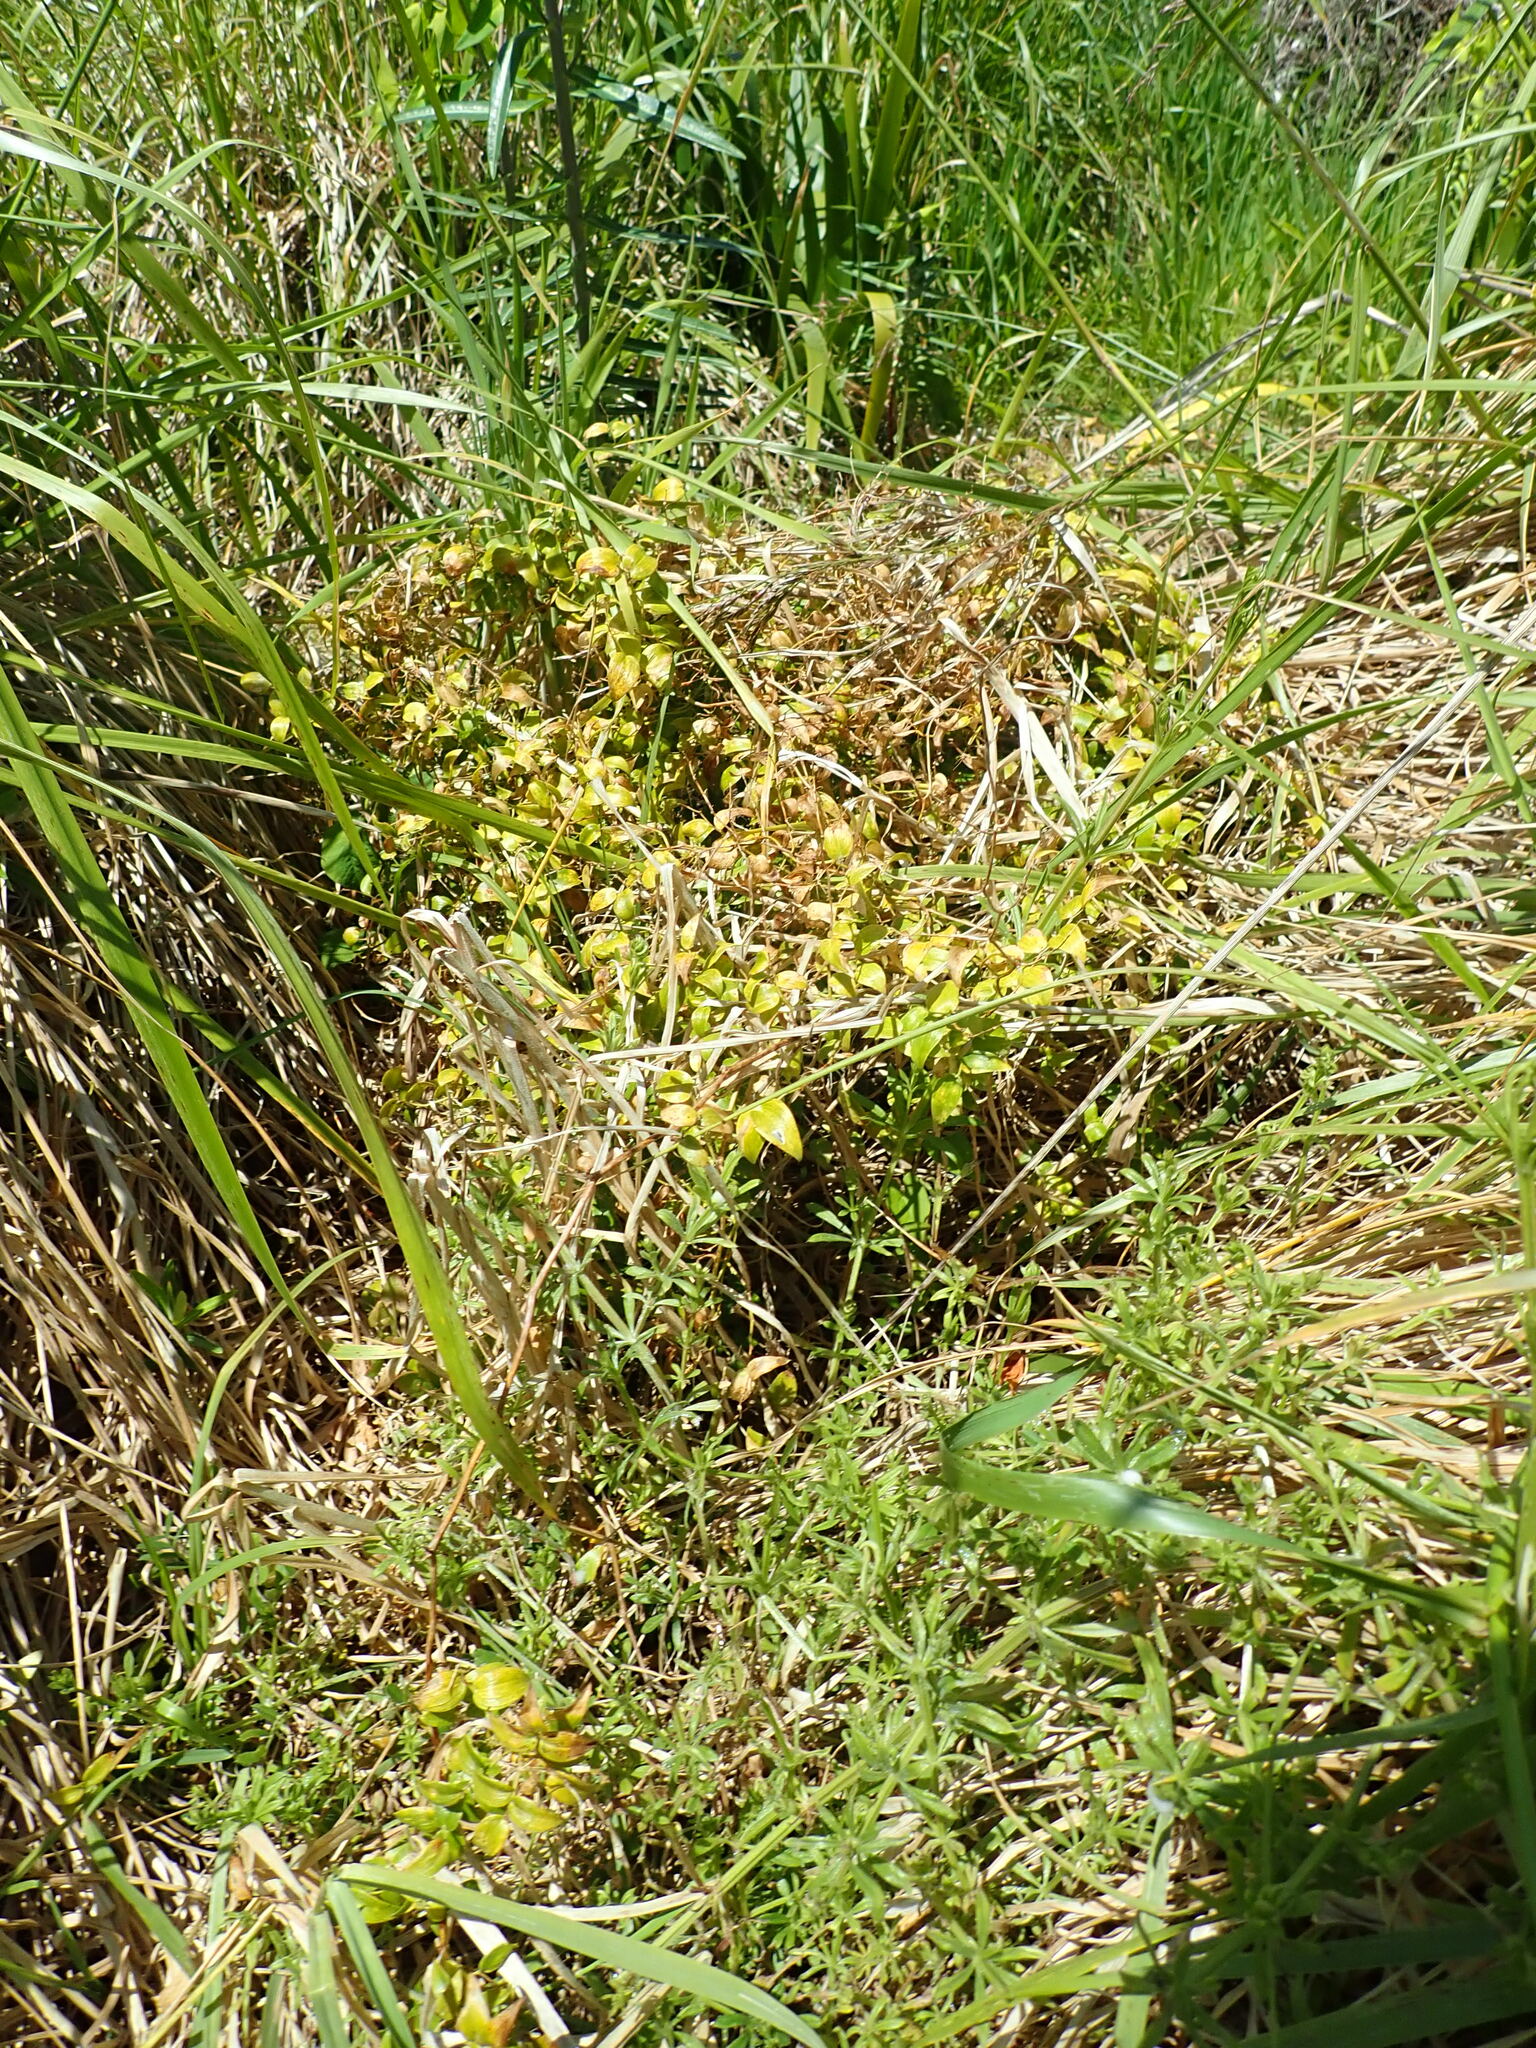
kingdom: Plantae
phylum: Tracheophyta
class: Liliopsida
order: Asparagales
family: Asparagaceae
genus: Asparagus
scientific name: Asparagus asparagoides
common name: African asparagus fern
